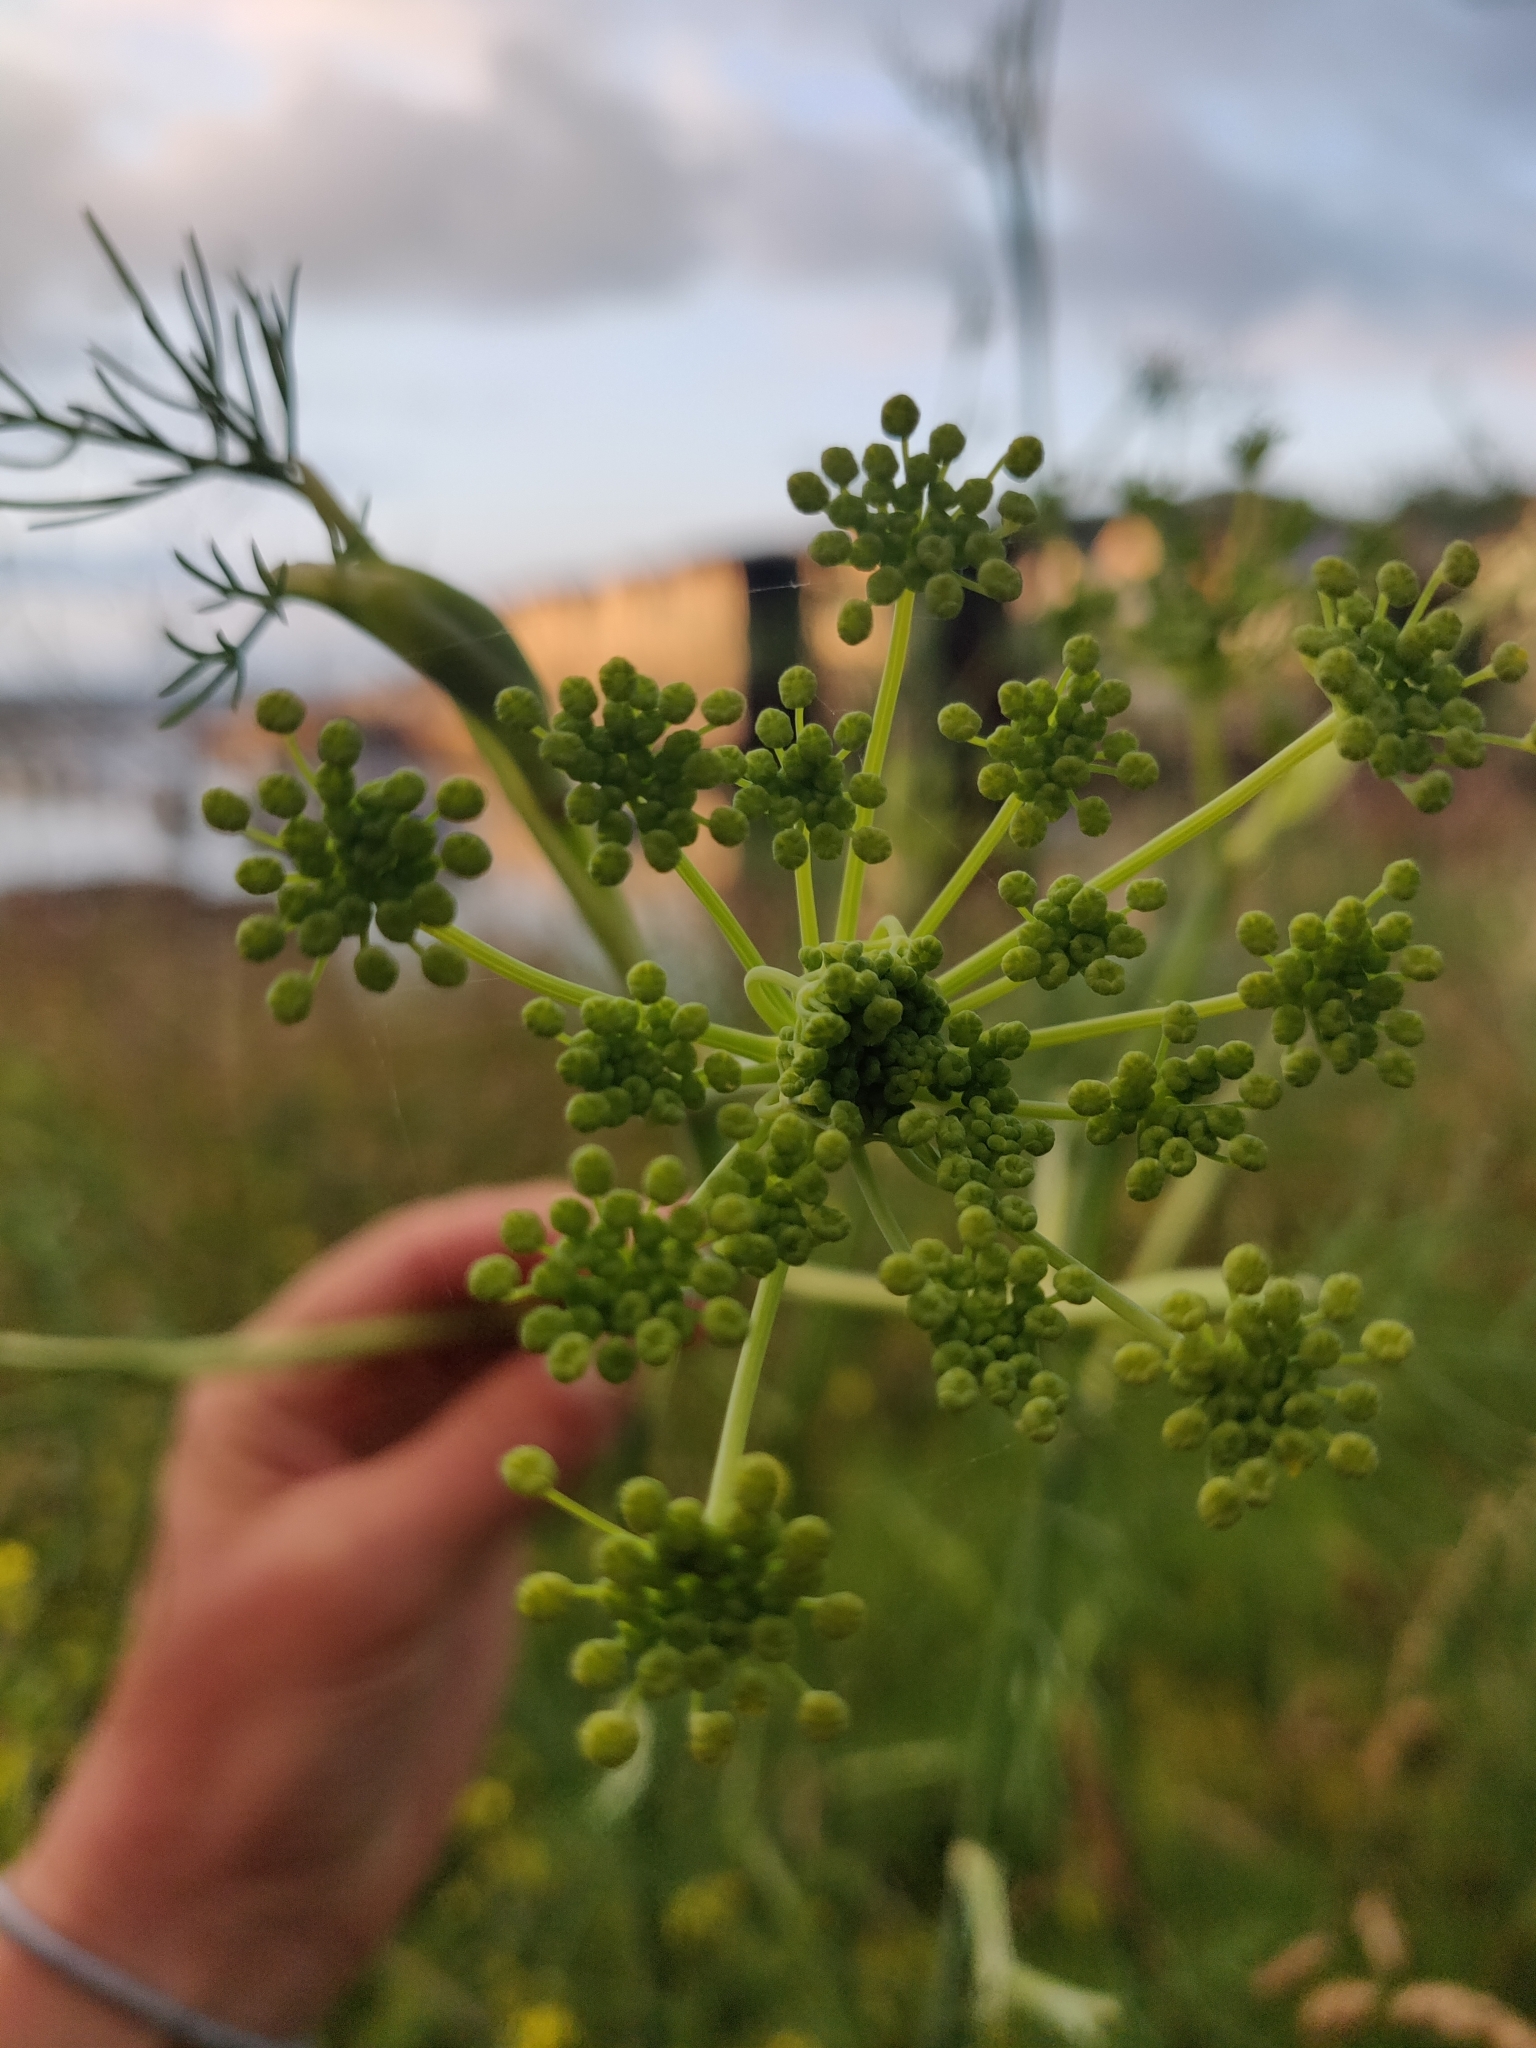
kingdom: Plantae
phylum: Tracheophyta
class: Magnoliopsida
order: Apiales
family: Apiaceae
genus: Foeniculum
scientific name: Foeniculum vulgare
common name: Fennel
